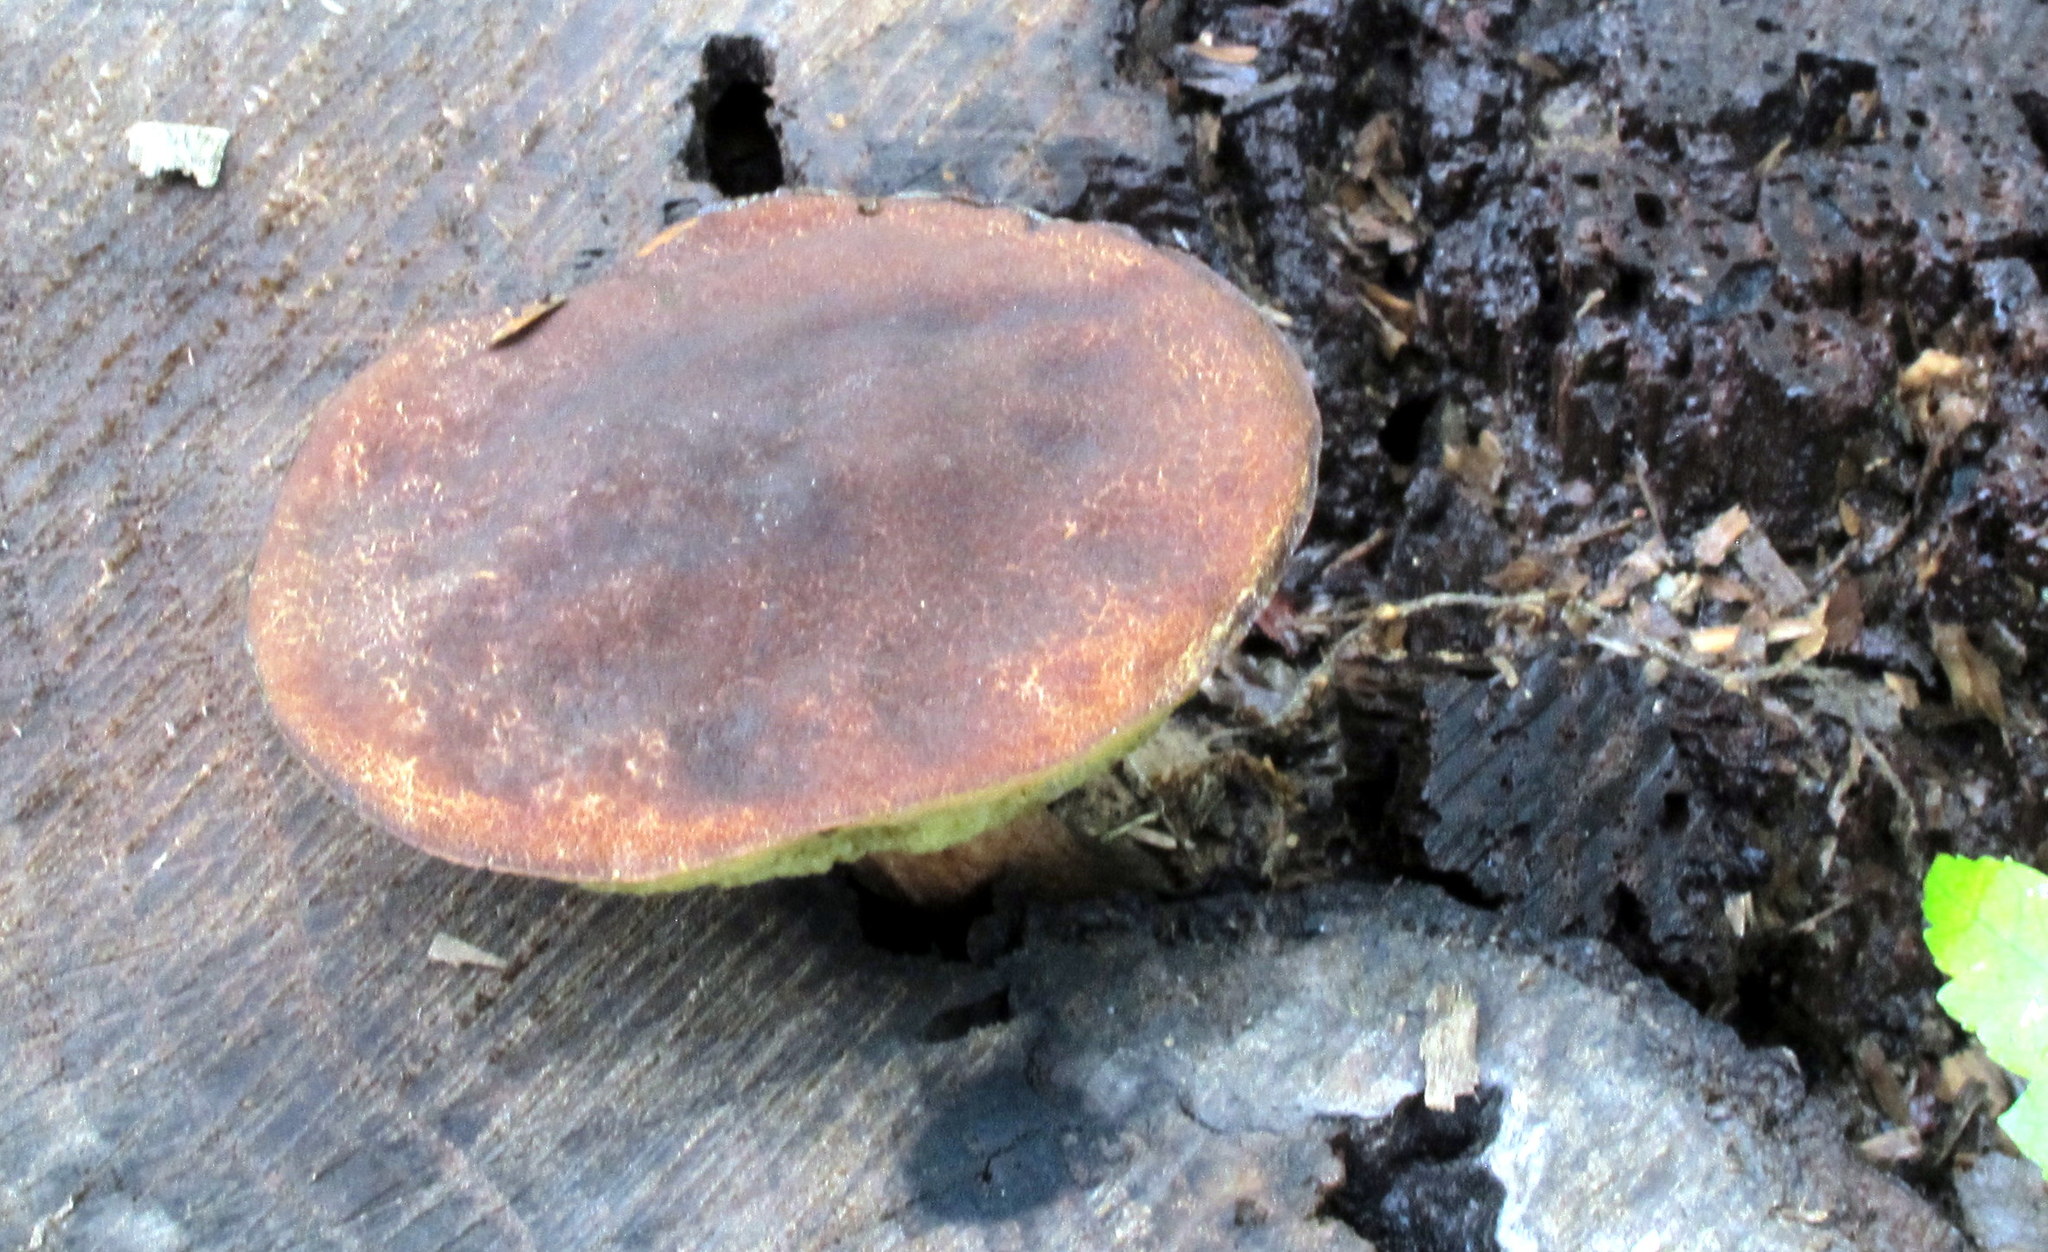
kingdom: Fungi
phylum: Basidiomycota
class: Agaricomycetes
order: Boletales
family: Boletaceae
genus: Boletellus
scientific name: Boletellus chrysenteroides
